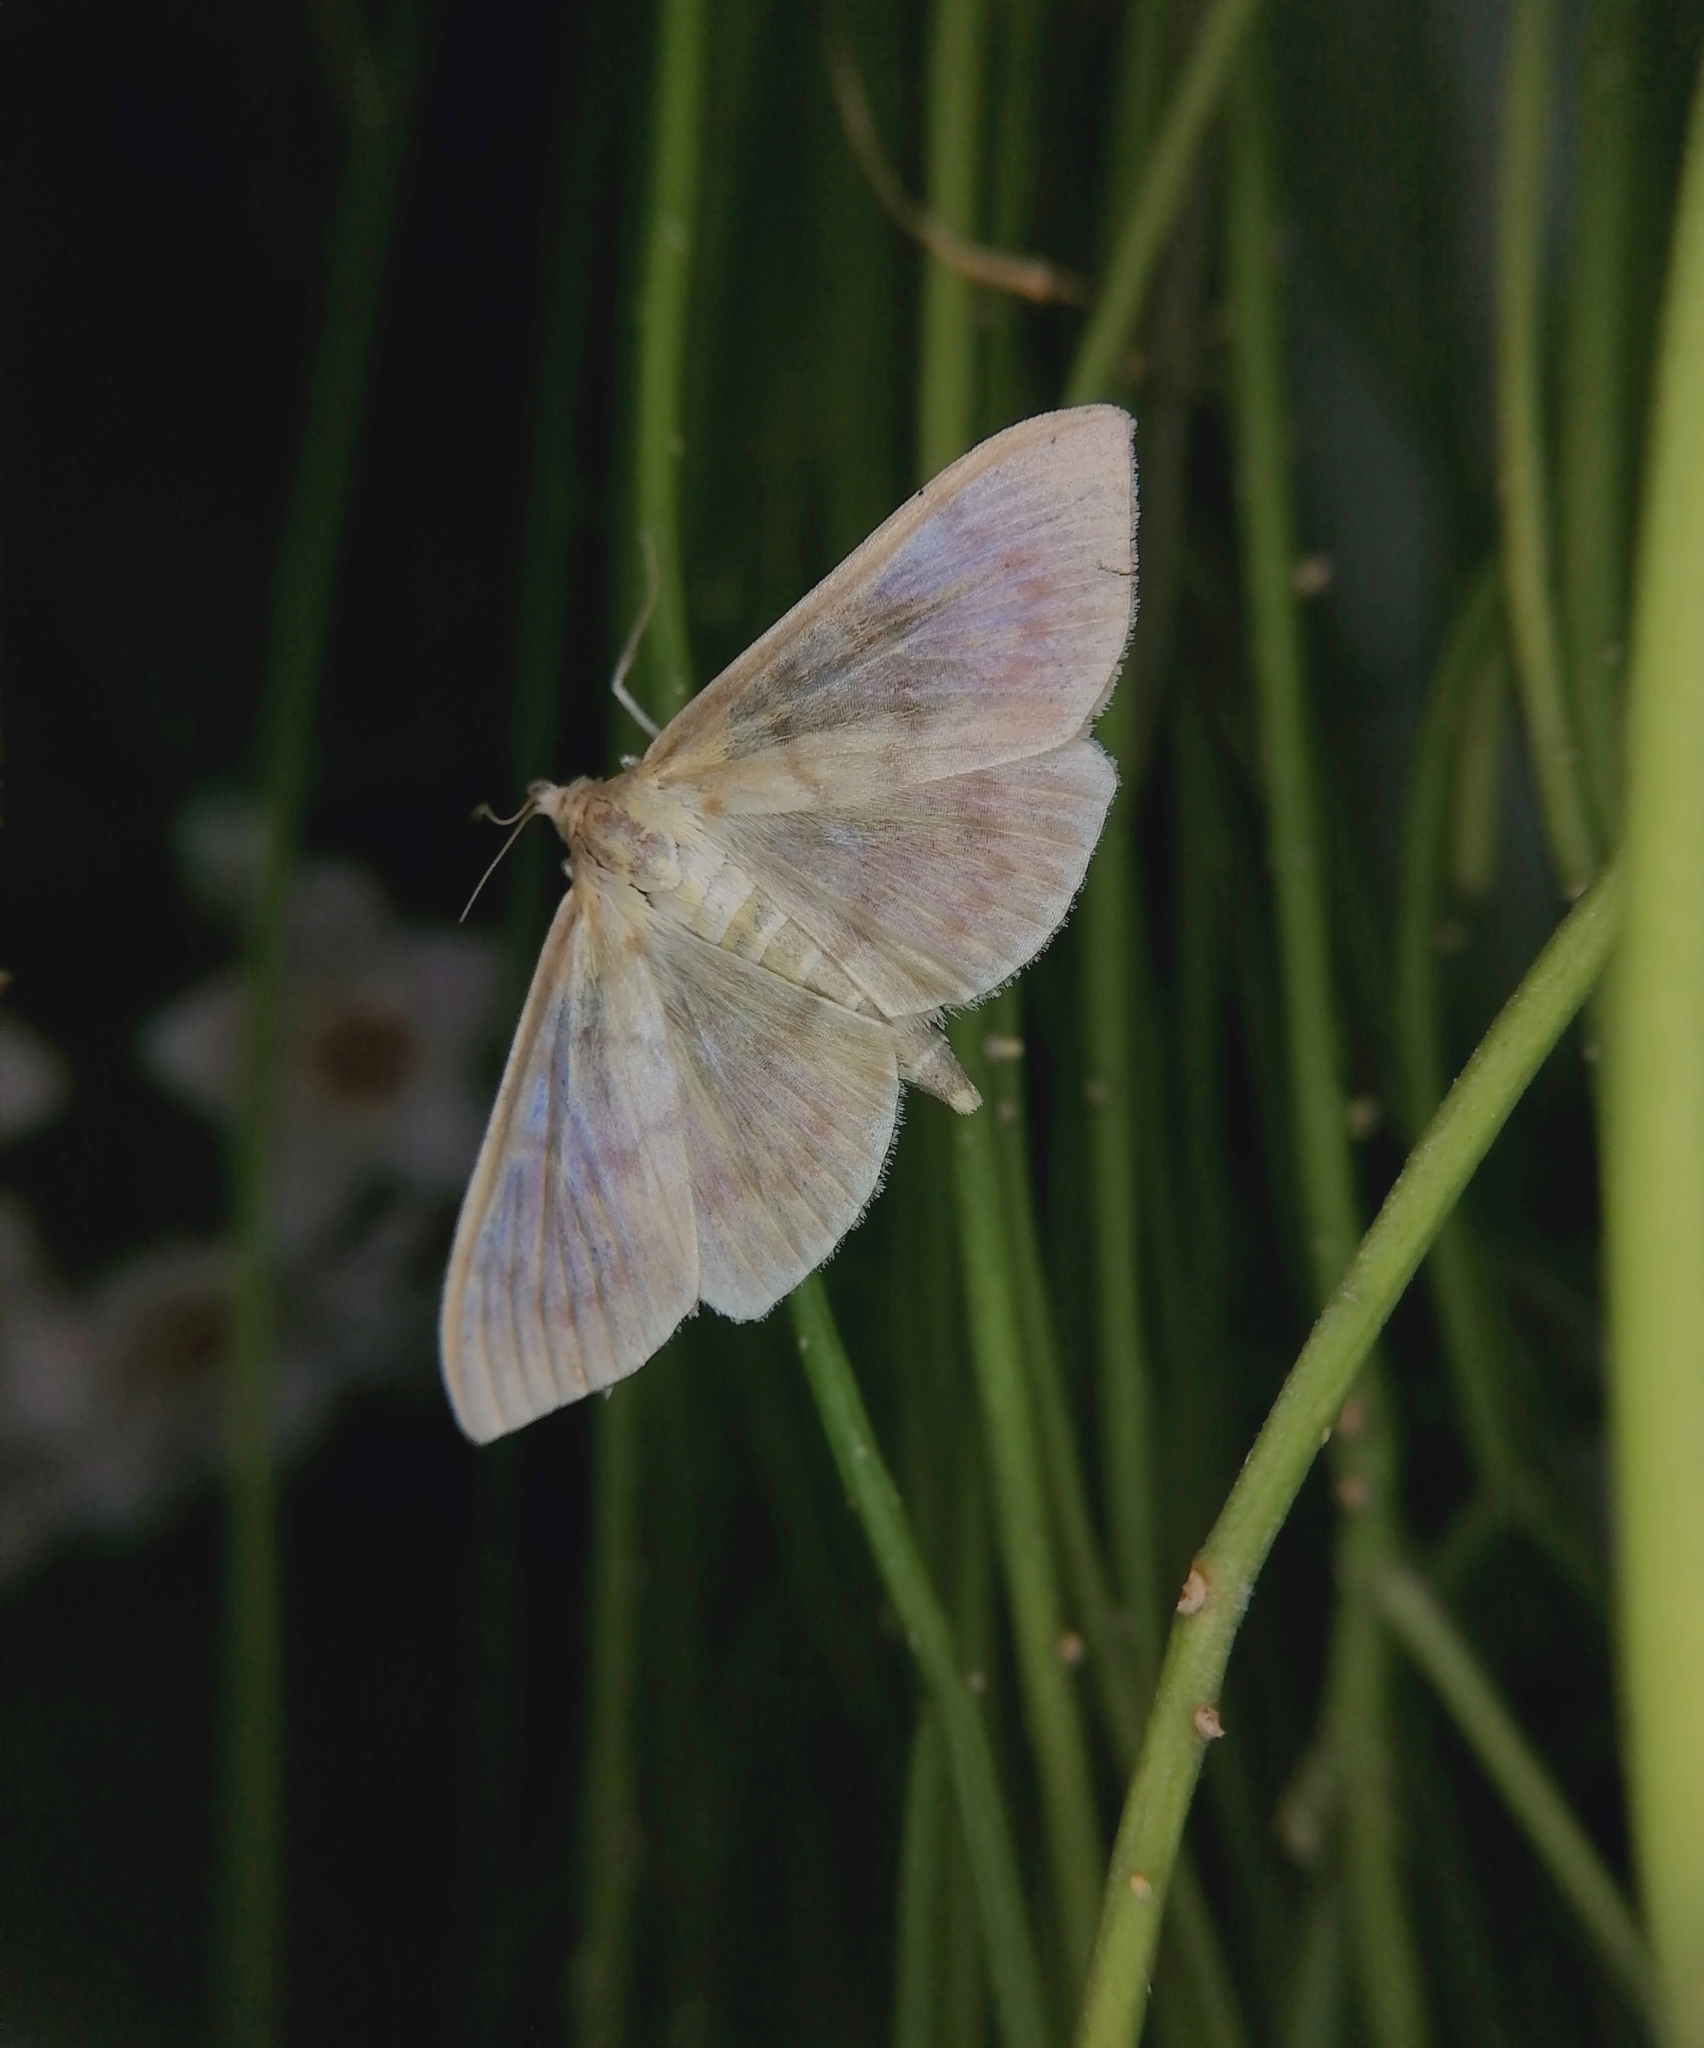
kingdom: Animalia
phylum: Arthropoda
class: Insecta
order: Lepidoptera
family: Crambidae
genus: Patania
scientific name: Patania ruralis
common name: Mother of pearl
